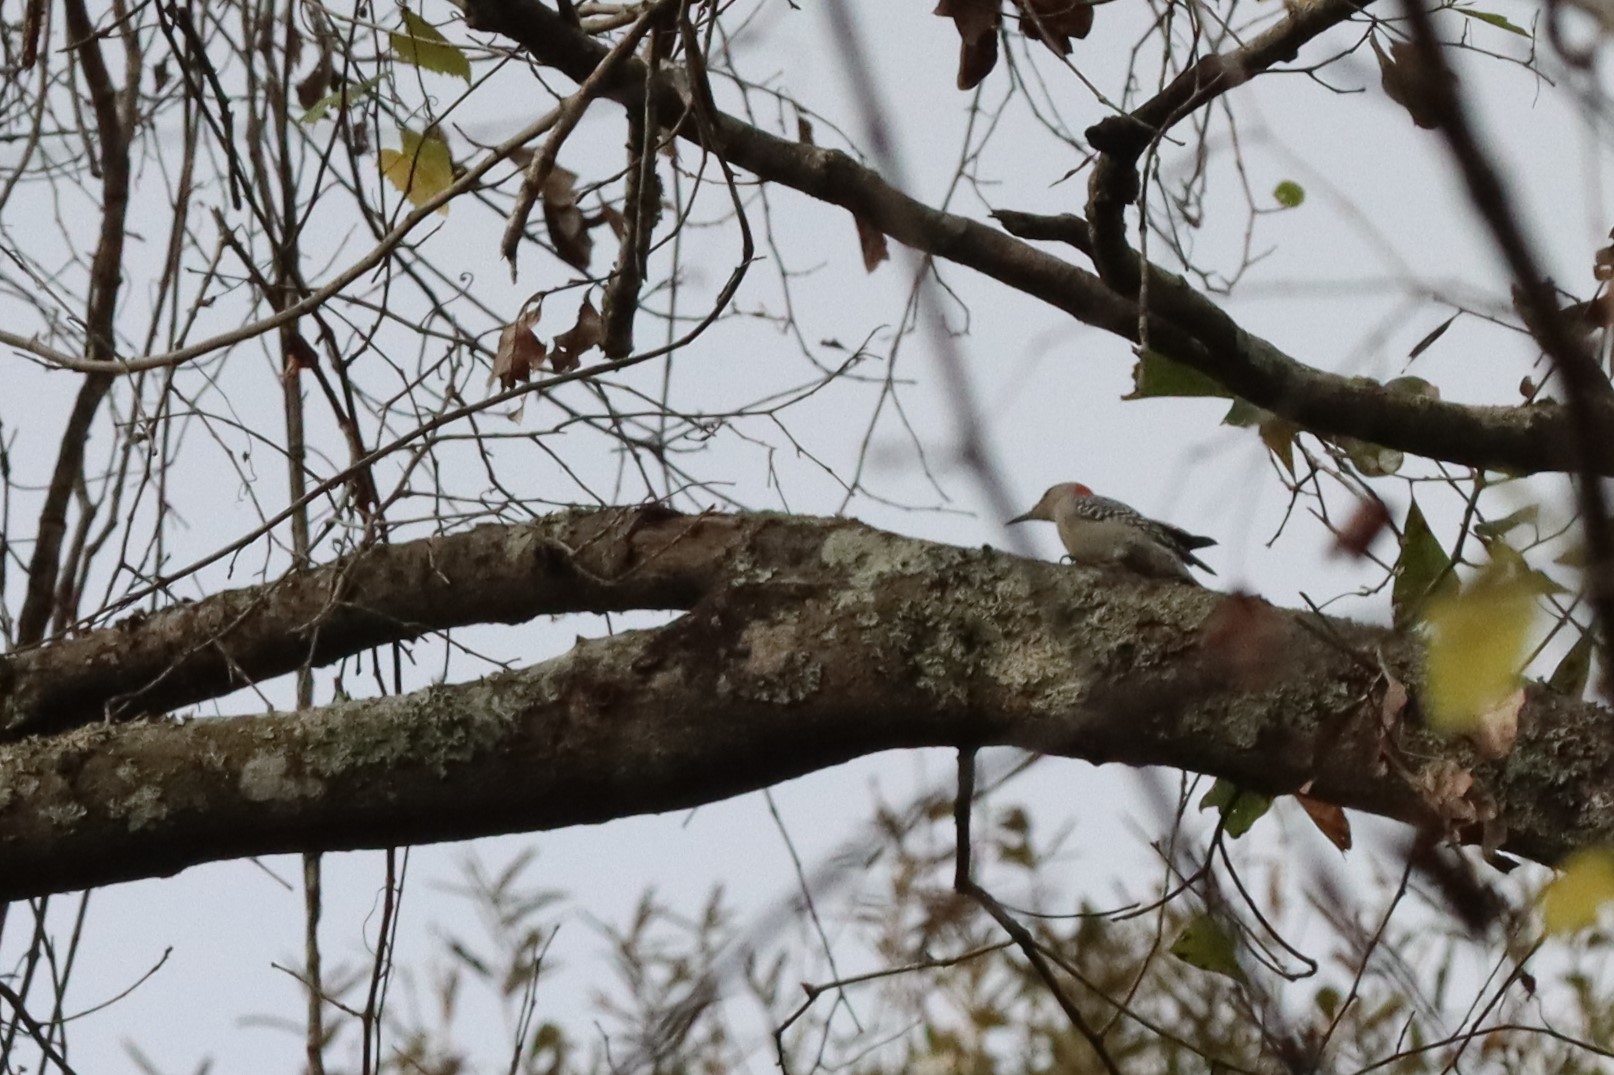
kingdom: Animalia
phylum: Chordata
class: Aves
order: Piciformes
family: Picidae
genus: Melanerpes
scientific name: Melanerpes carolinus
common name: Red-bellied woodpecker
